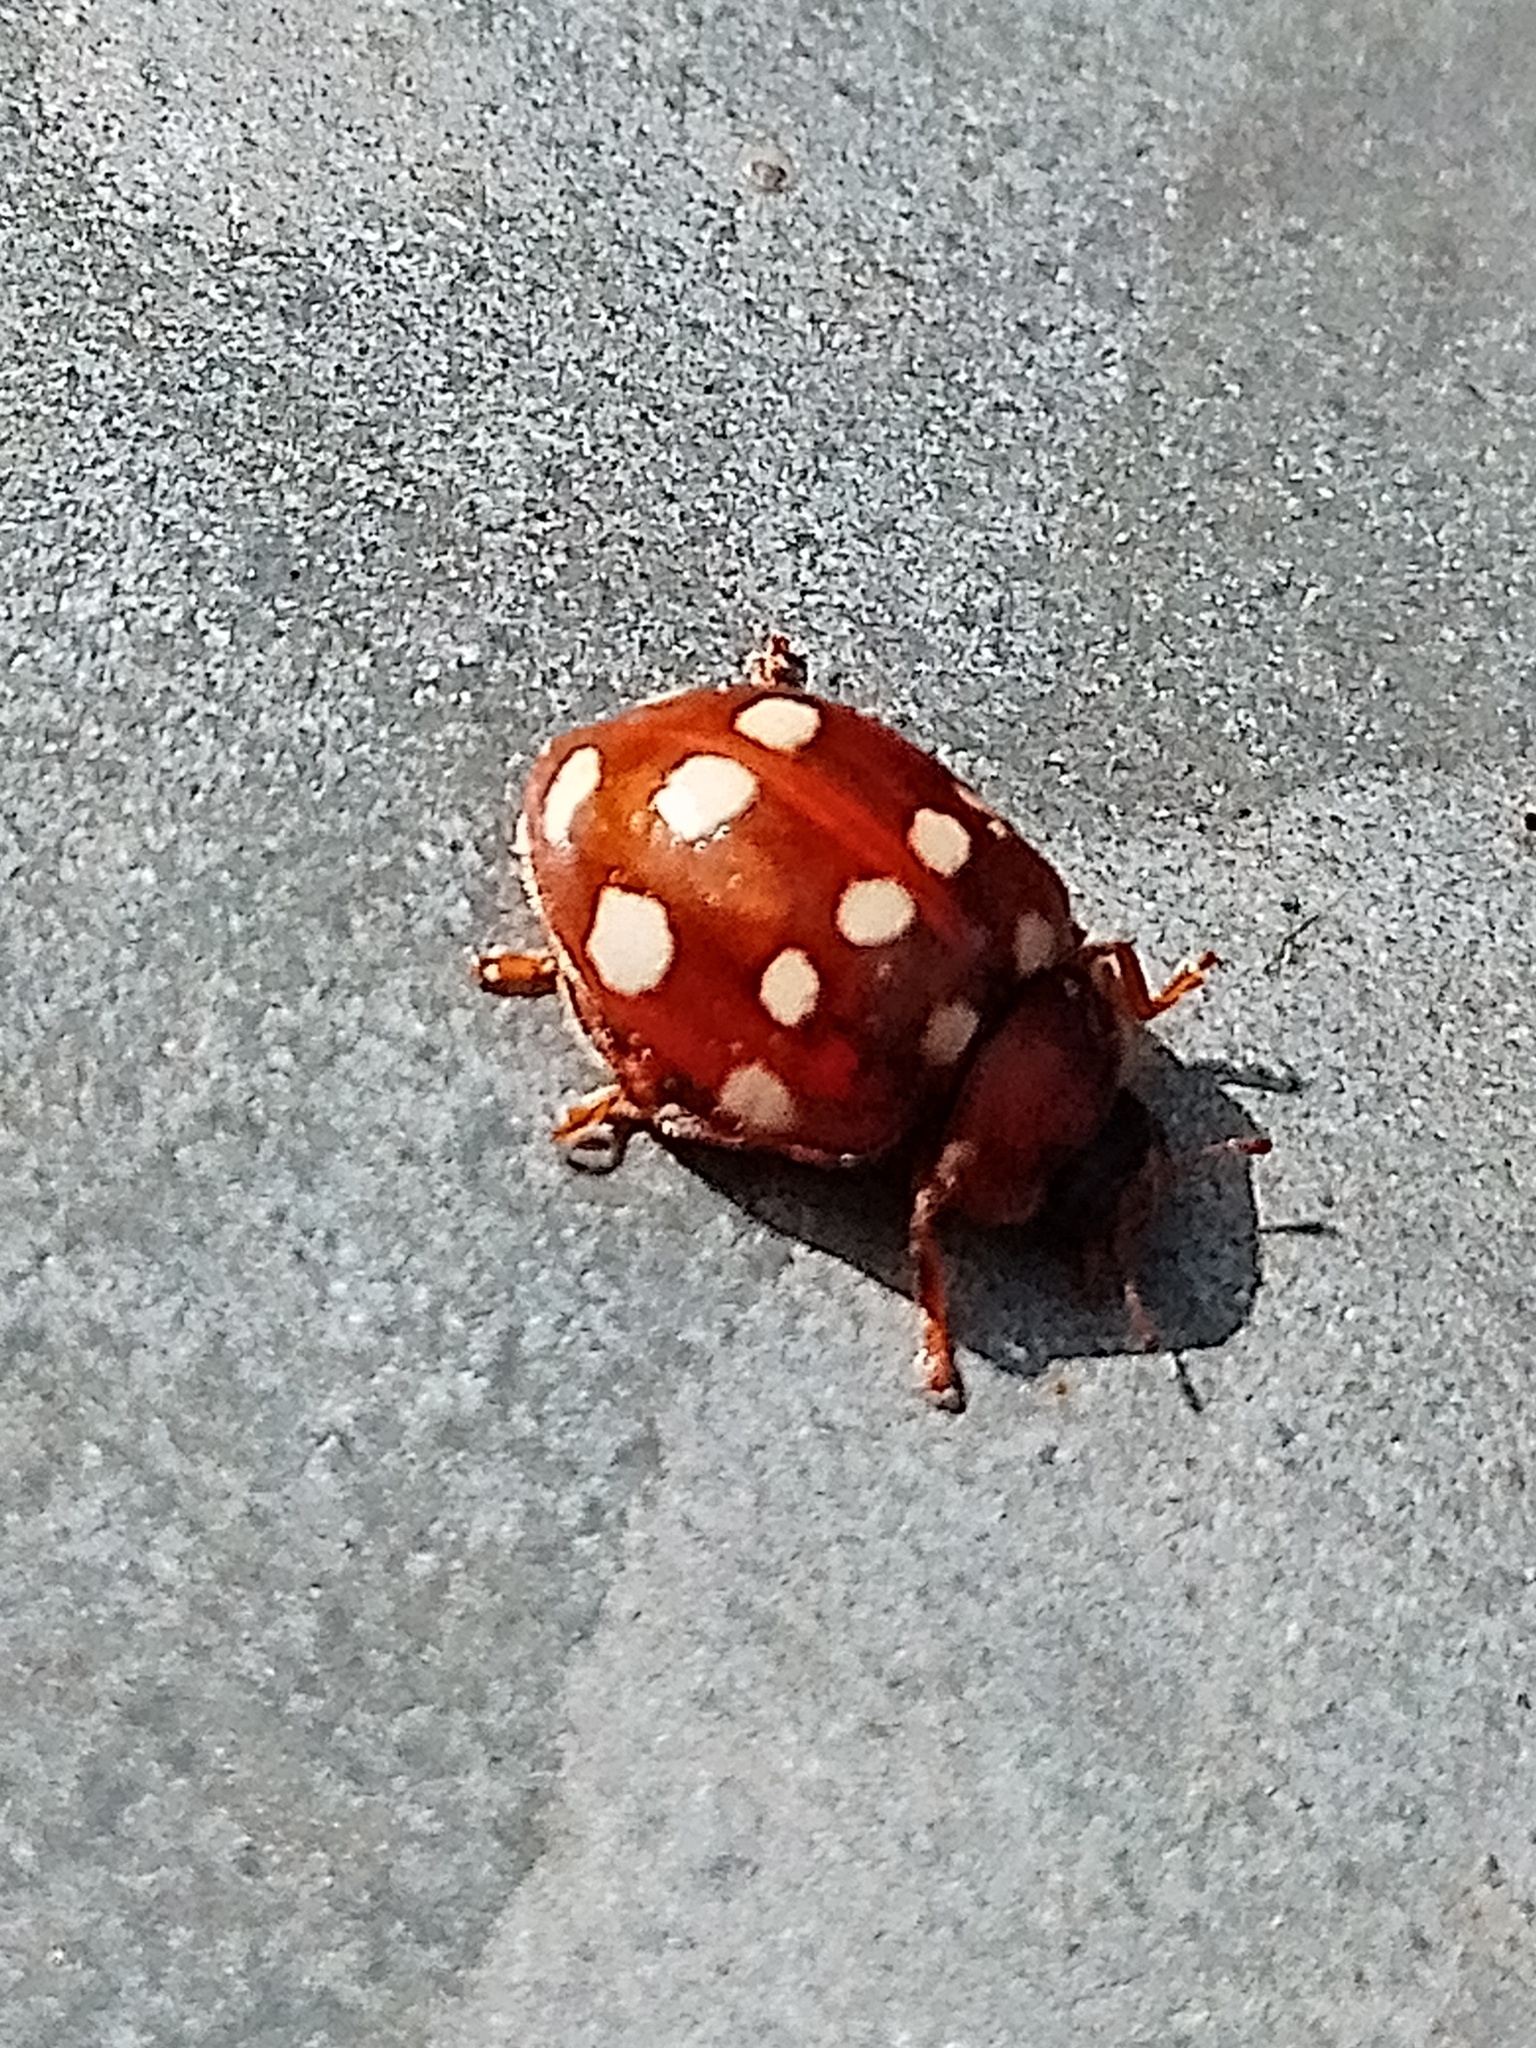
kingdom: Animalia
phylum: Arthropoda
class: Insecta
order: Coleoptera
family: Coccinellidae
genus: Calvia
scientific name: Calvia quatuordecimguttata
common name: Cream-spot ladybird
